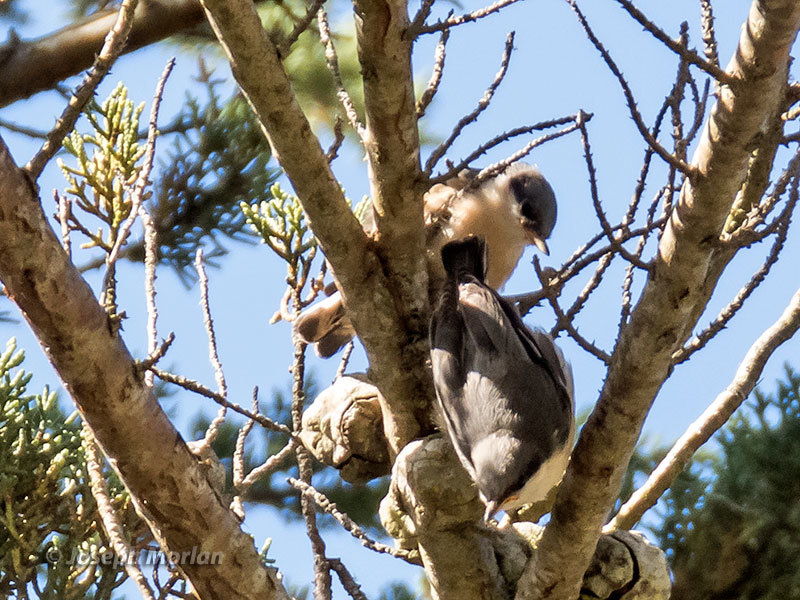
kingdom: Animalia
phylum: Chordata
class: Aves
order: Passeriformes
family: Sittidae
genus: Sitta
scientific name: Sitta pygmaea
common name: Pygmy nuthatch
